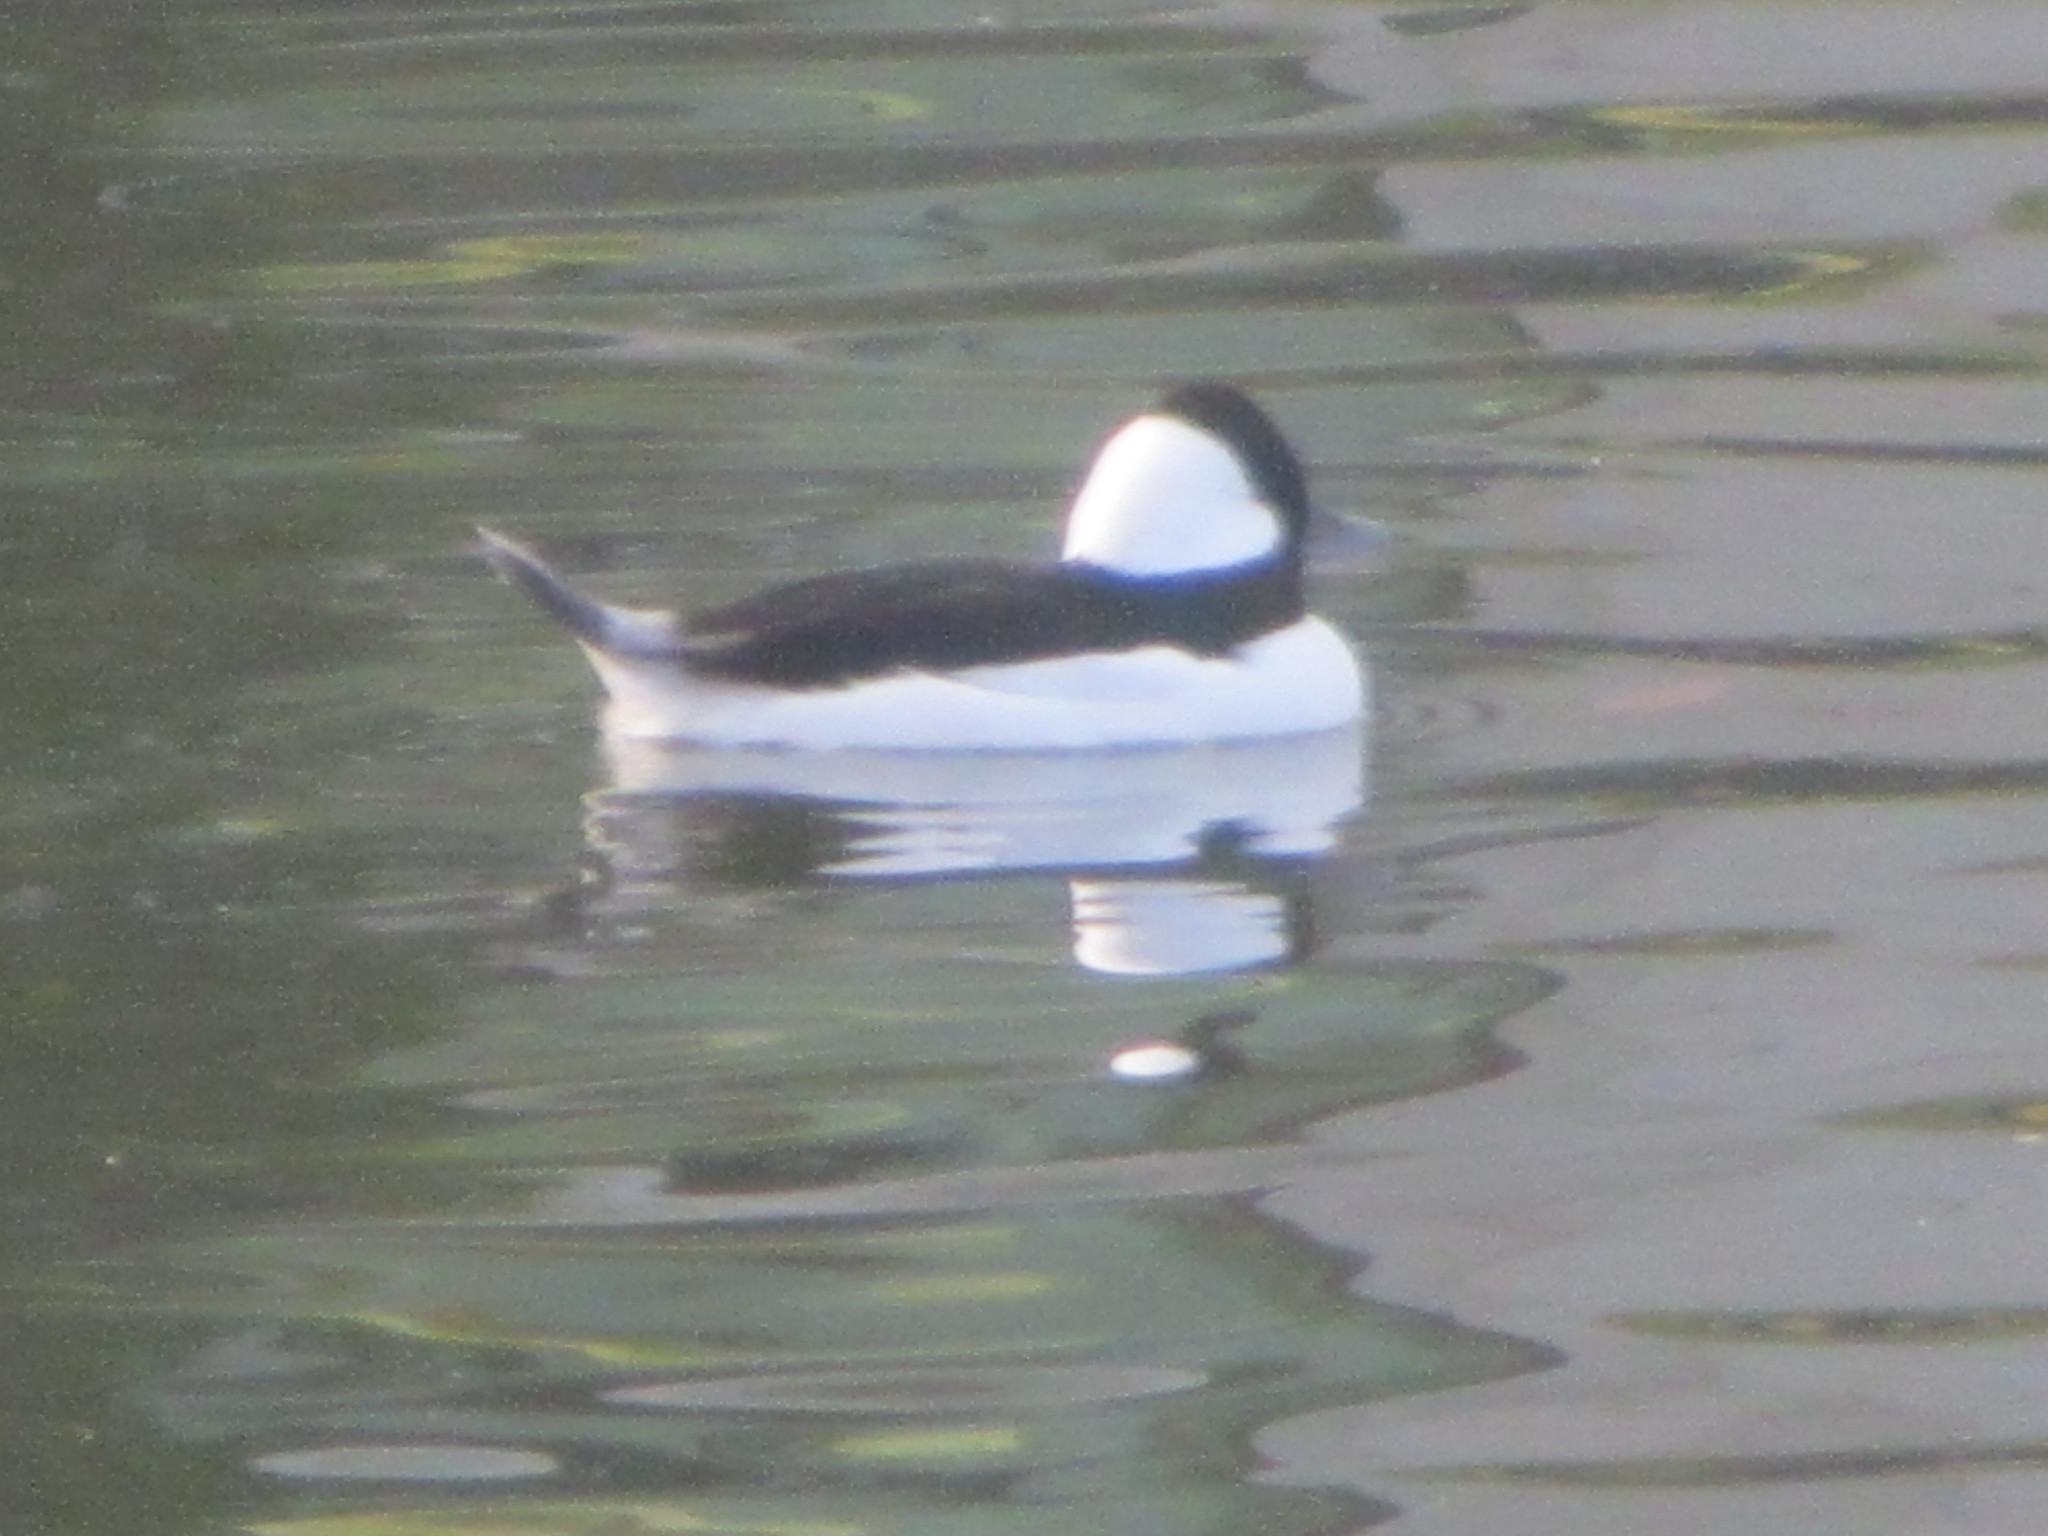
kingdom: Animalia
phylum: Chordata
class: Aves
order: Anseriformes
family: Anatidae
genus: Bucephala
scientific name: Bucephala albeola
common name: Bufflehead
